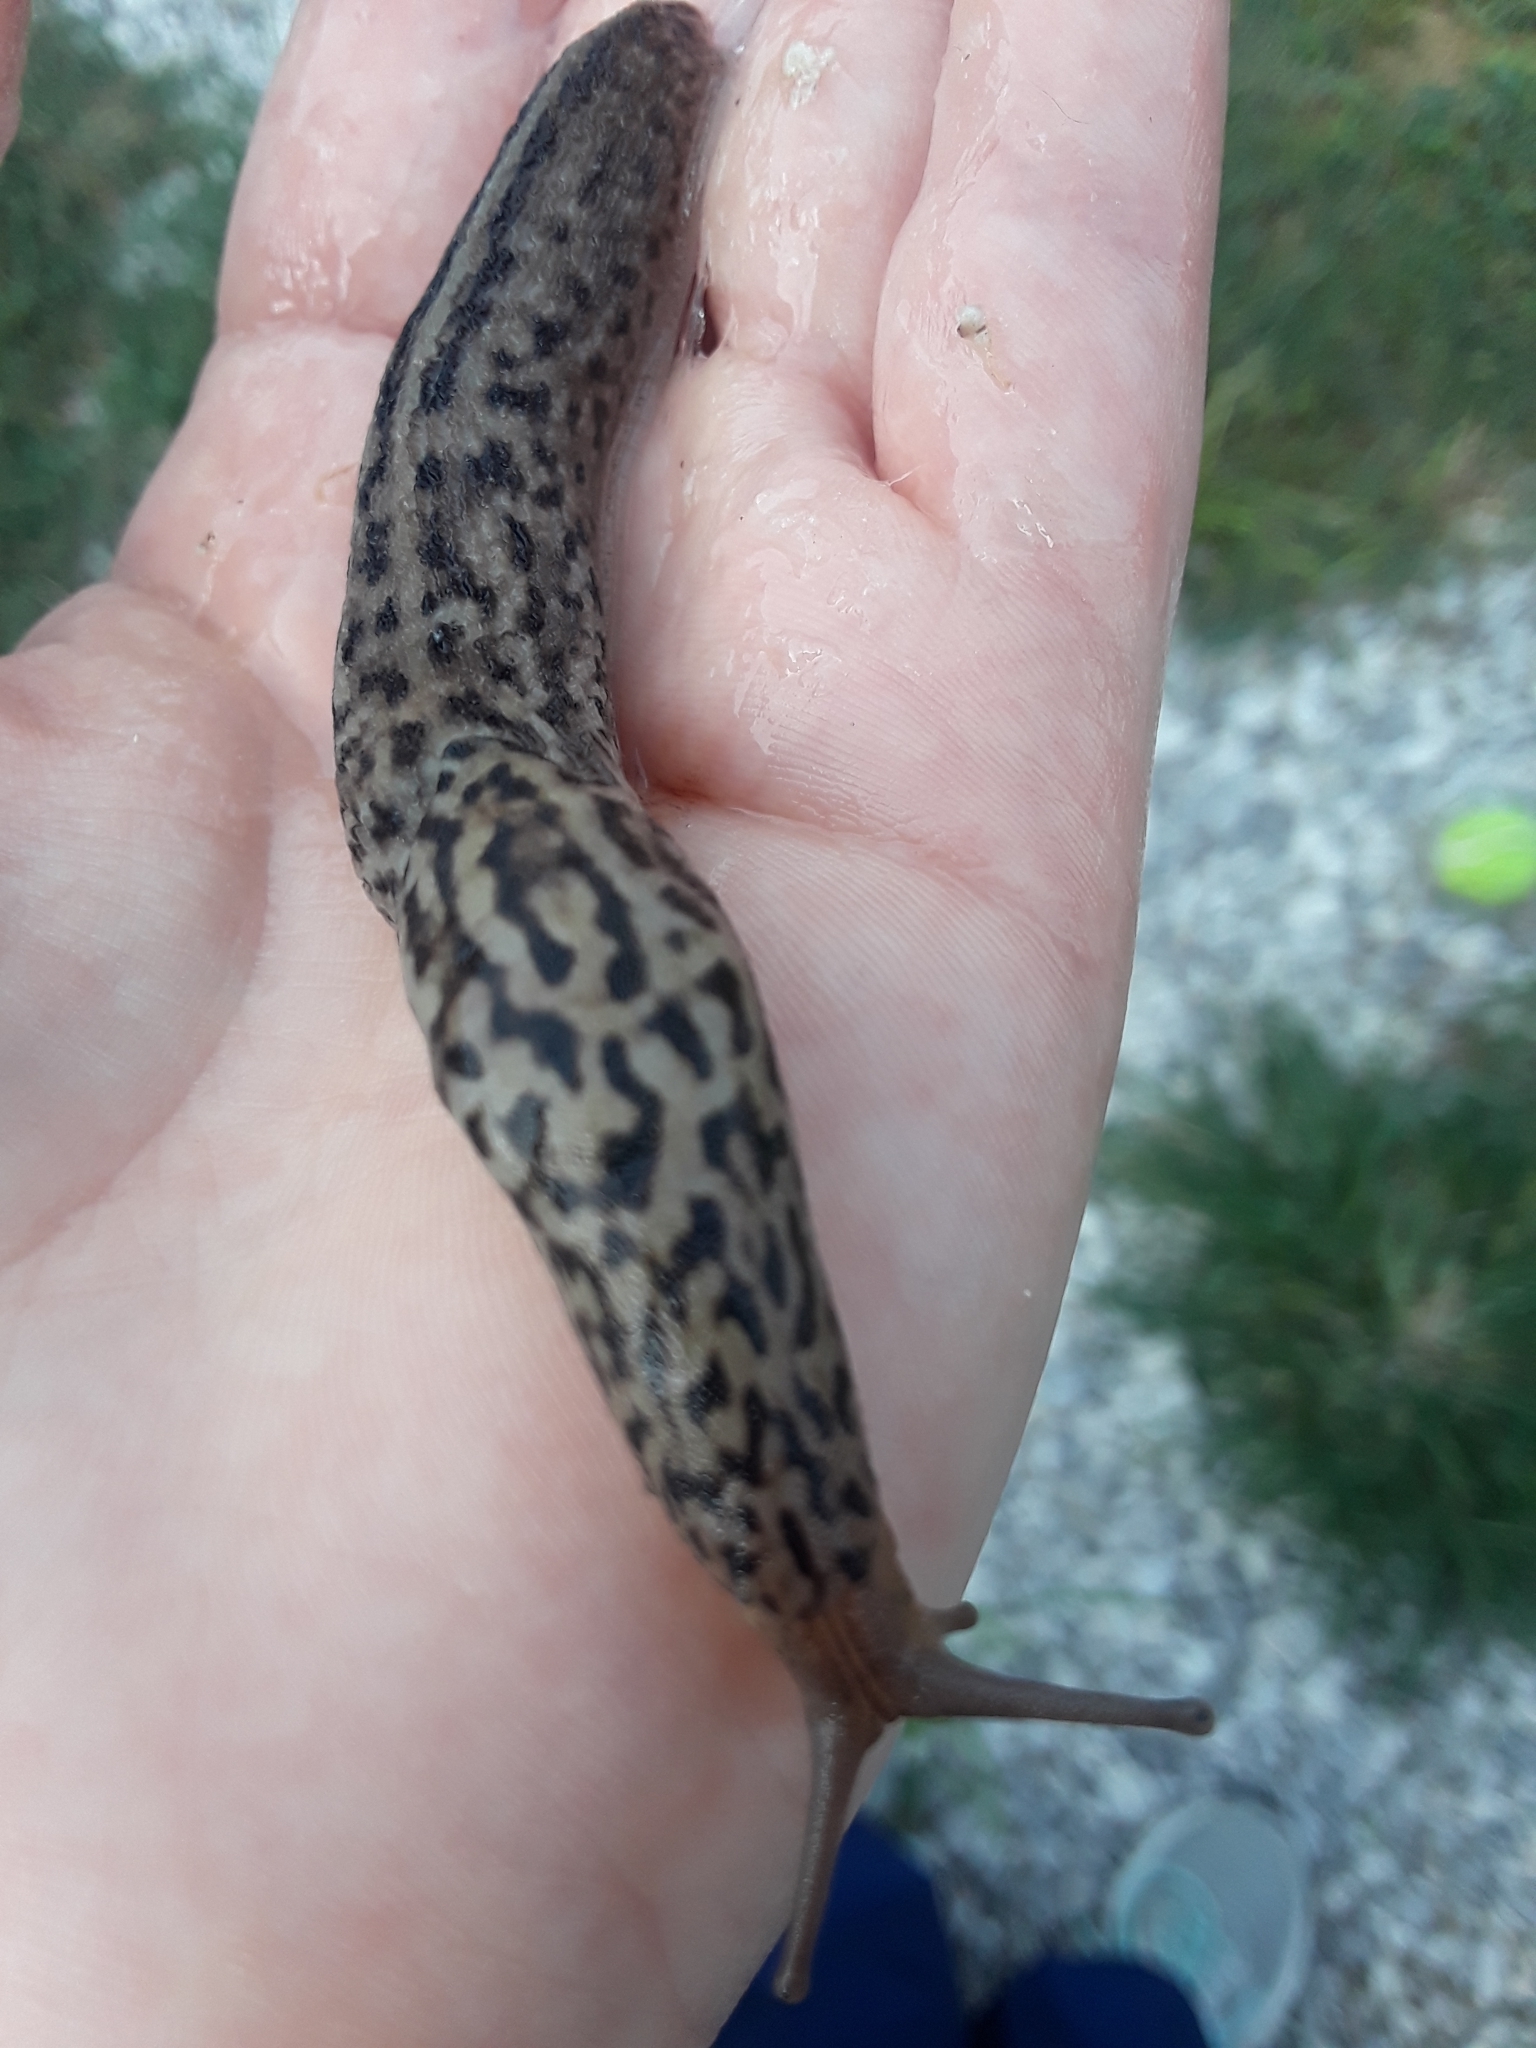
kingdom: Animalia
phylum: Mollusca
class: Gastropoda
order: Stylommatophora
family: Limacidae
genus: Limax
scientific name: Limax maximus
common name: Great grey slug
